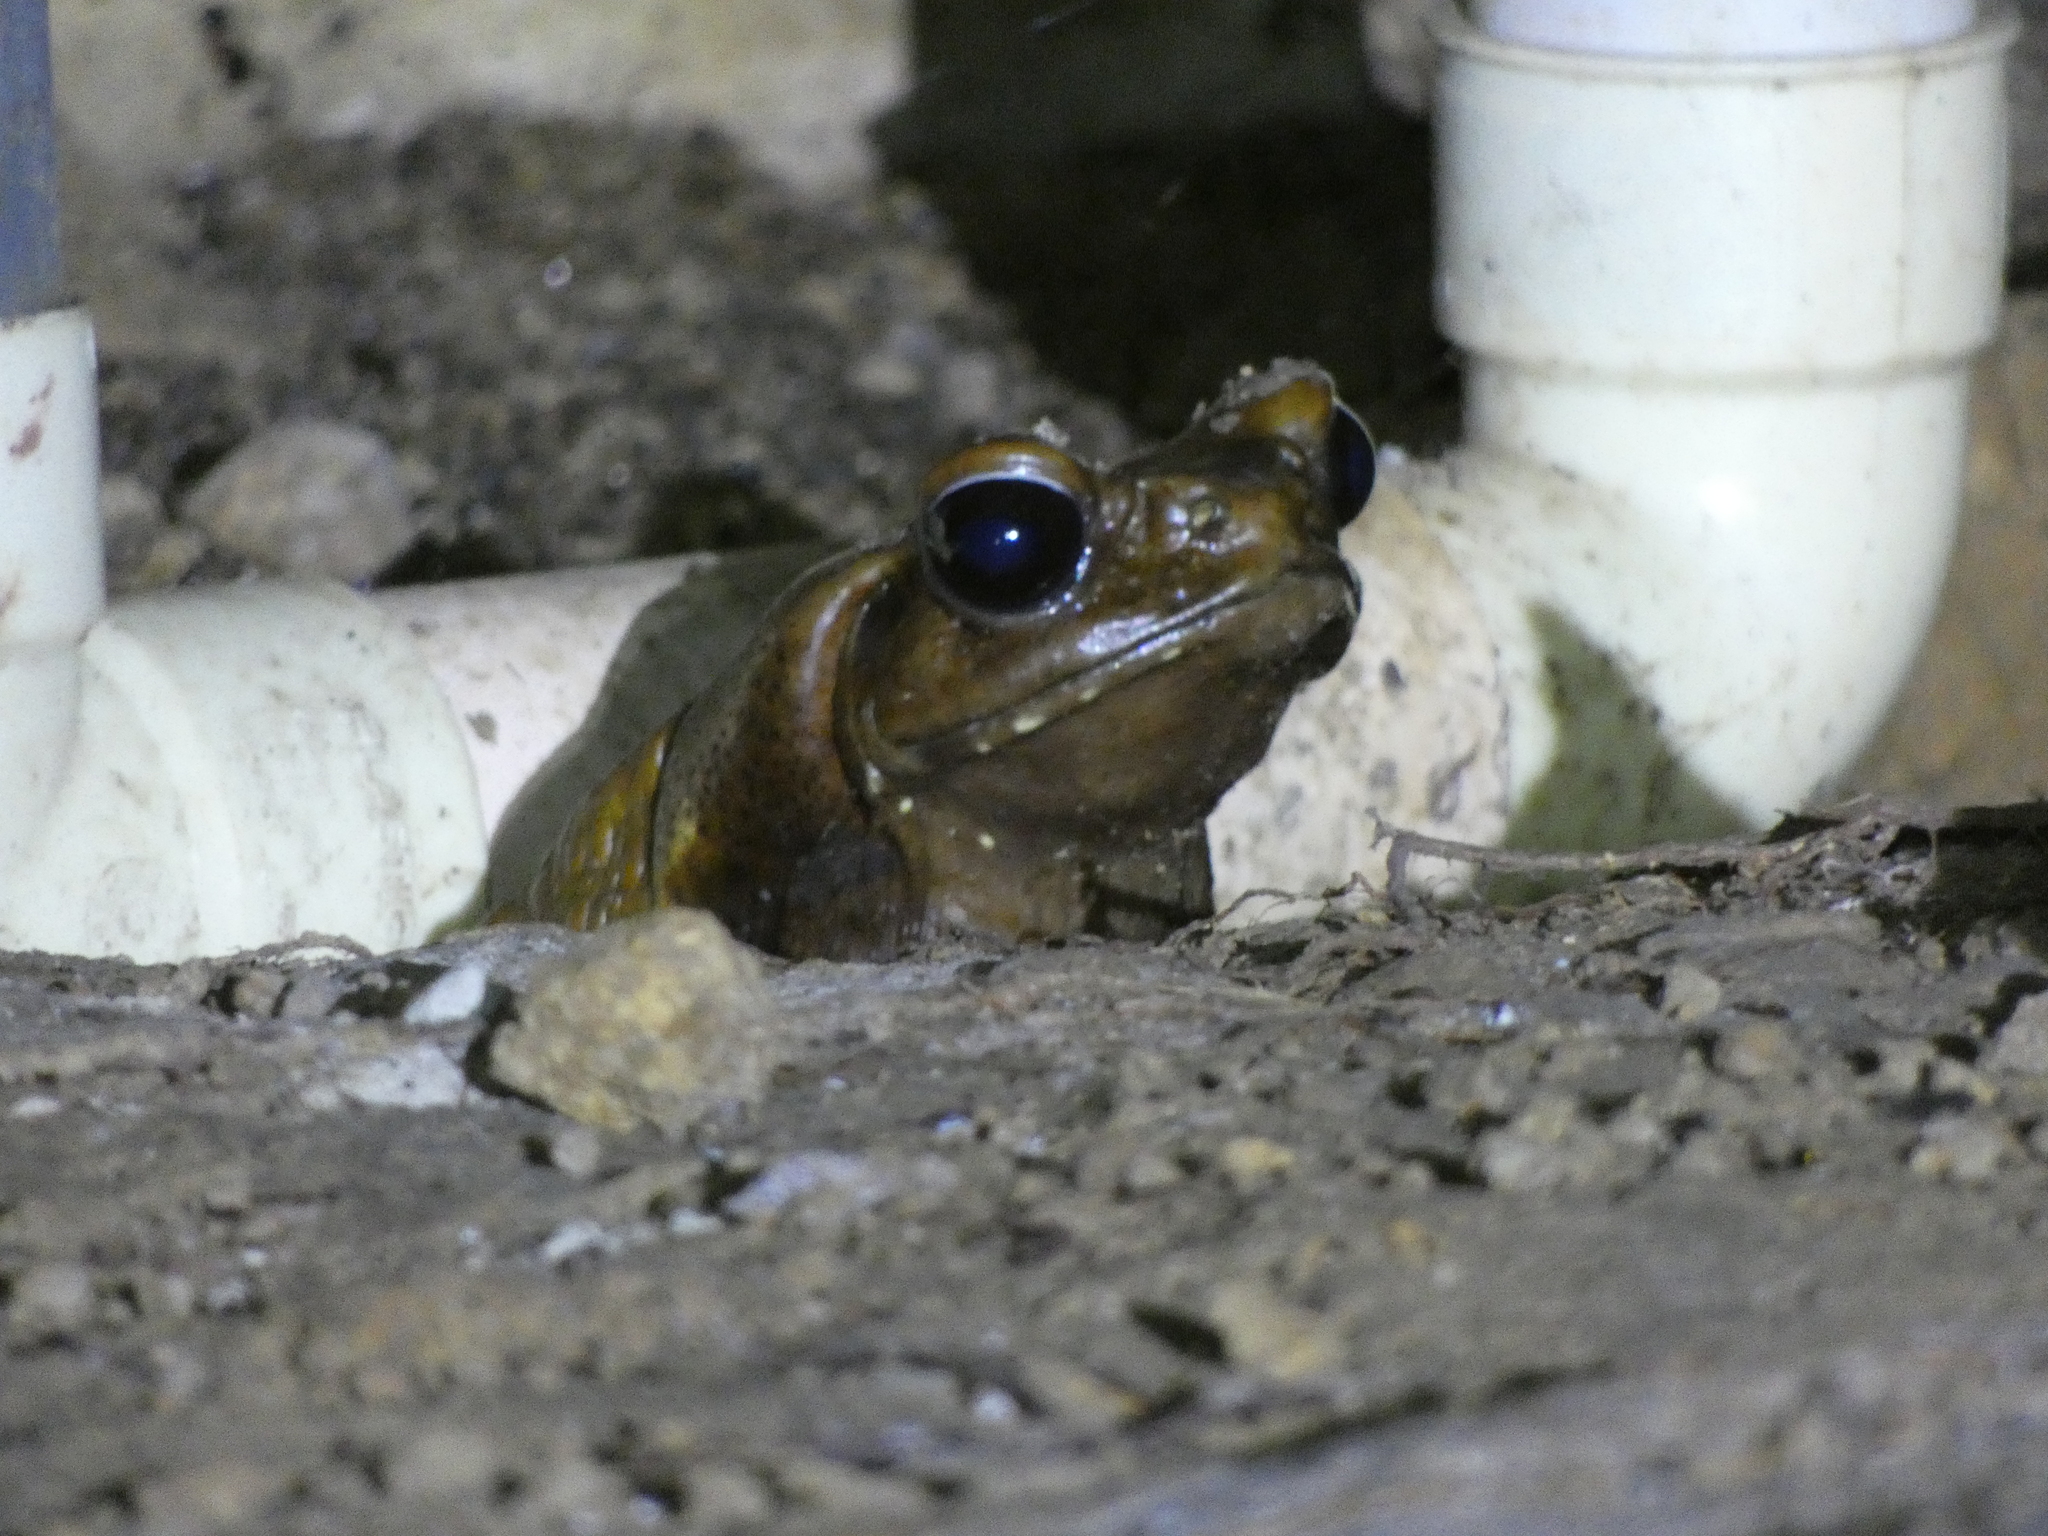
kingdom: Animalia
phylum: Chordata
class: Amphibia
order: Anura
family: Bufonidae
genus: Rhaebo
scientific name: Rhaebo guttatus
